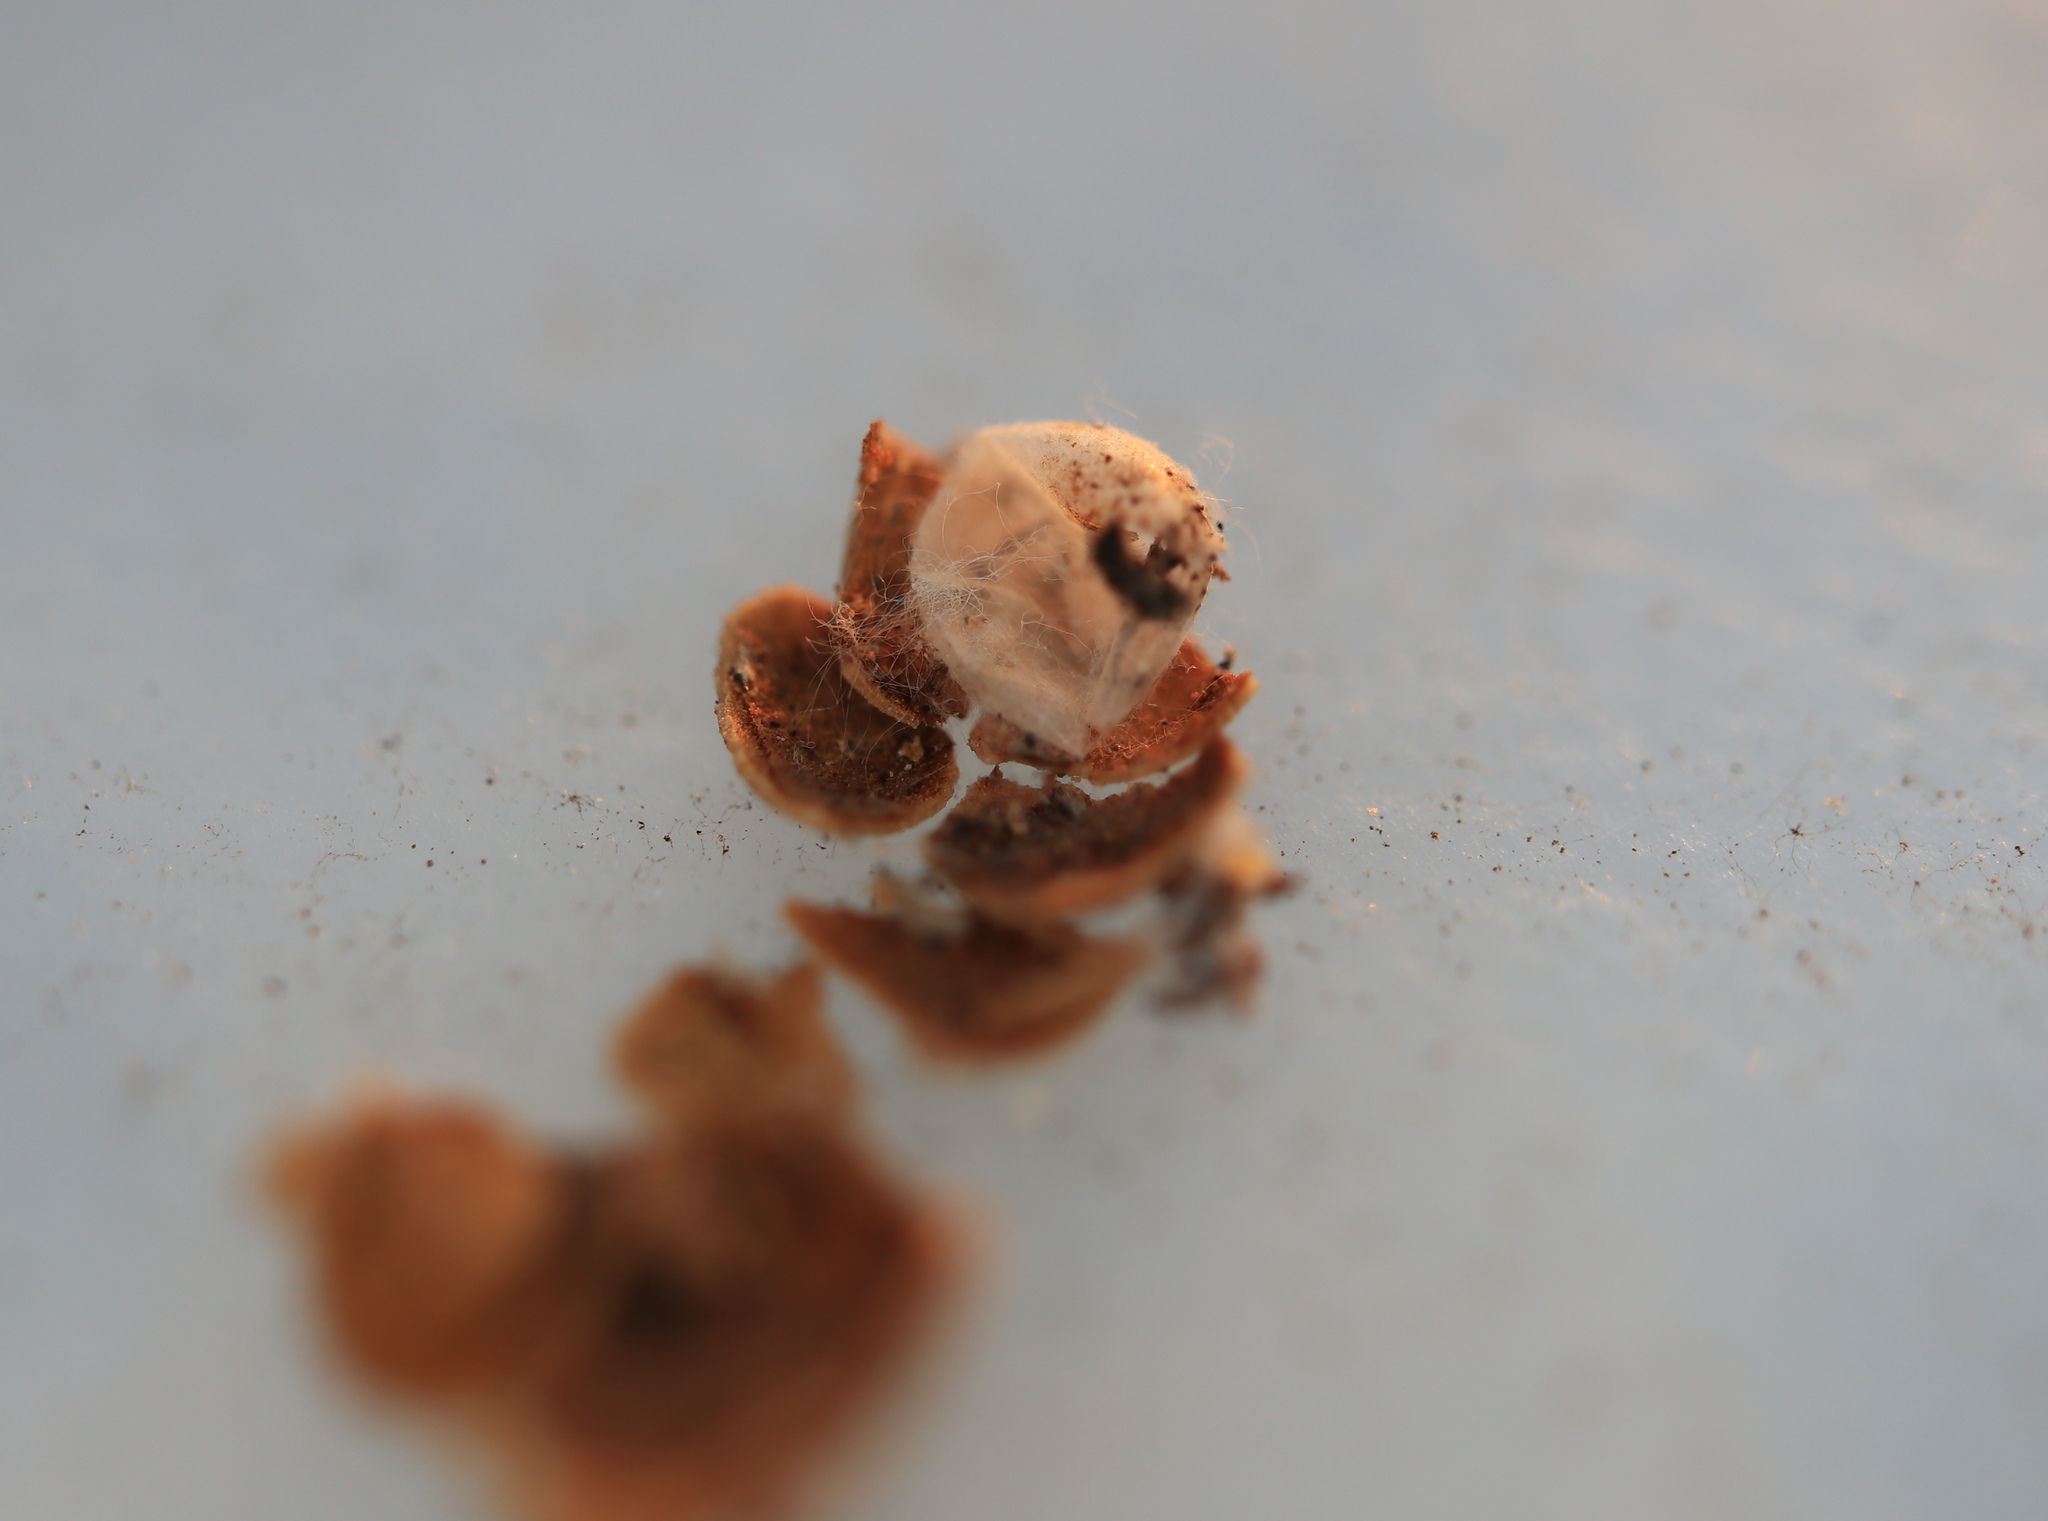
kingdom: Animalia
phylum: Arthropoda
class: Insecta
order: Hymenoptera
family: Cynipidae
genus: Disholcaspis
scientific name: Disholcaspis
